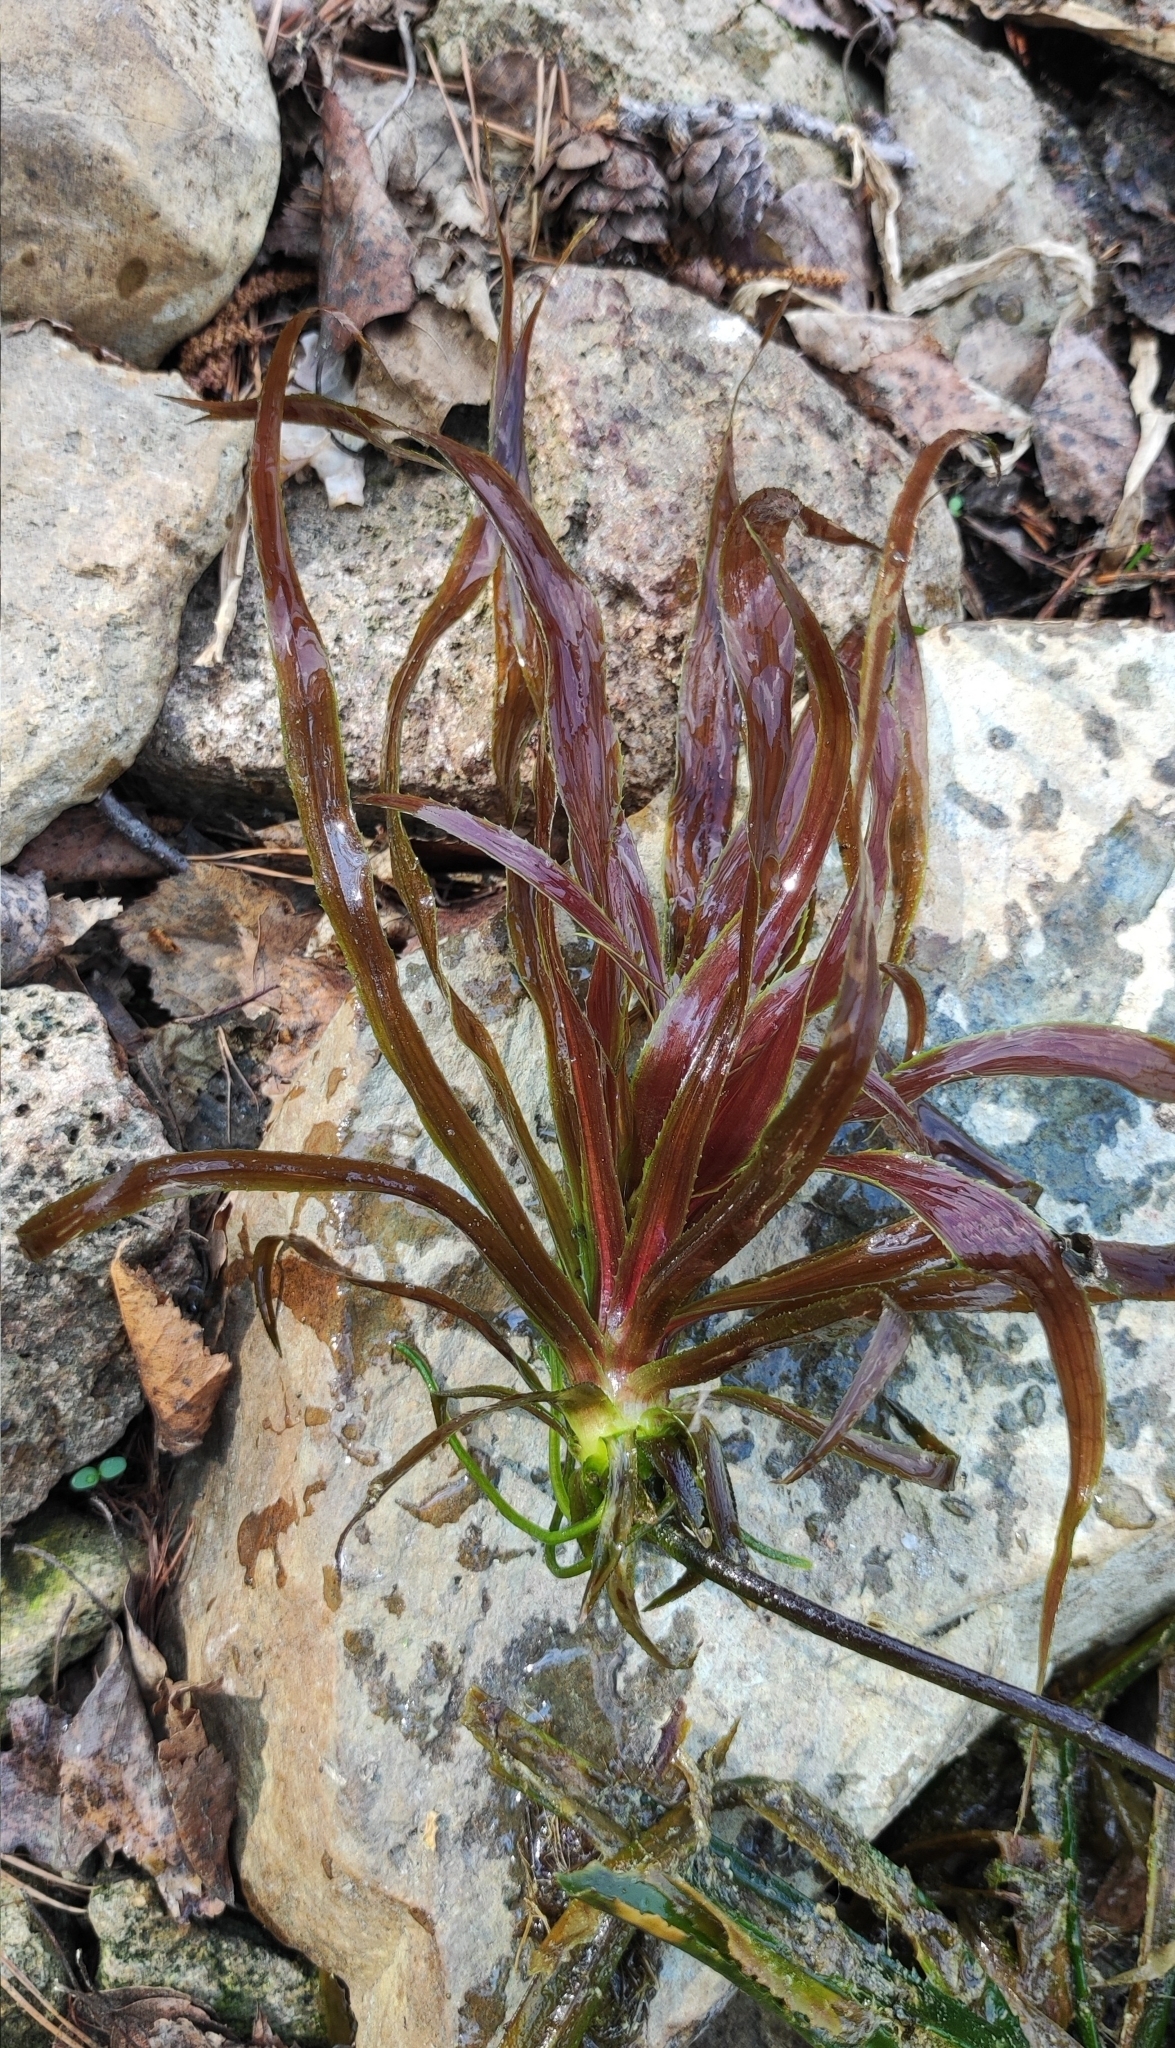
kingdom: Plantae
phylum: Tracheophyta
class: Liliopsida
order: Alismatales
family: Hydrocharitaceae
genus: Stratiotes
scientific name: Stratiotes aloides
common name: Water-soldier
